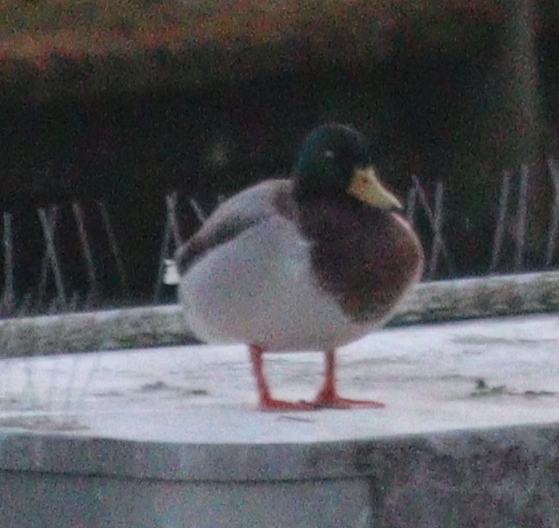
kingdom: Animalia
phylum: Chordata
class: Aves
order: Anseriformes
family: Anatidae
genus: Anas
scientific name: Anas platyrhynchos
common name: Mallard
